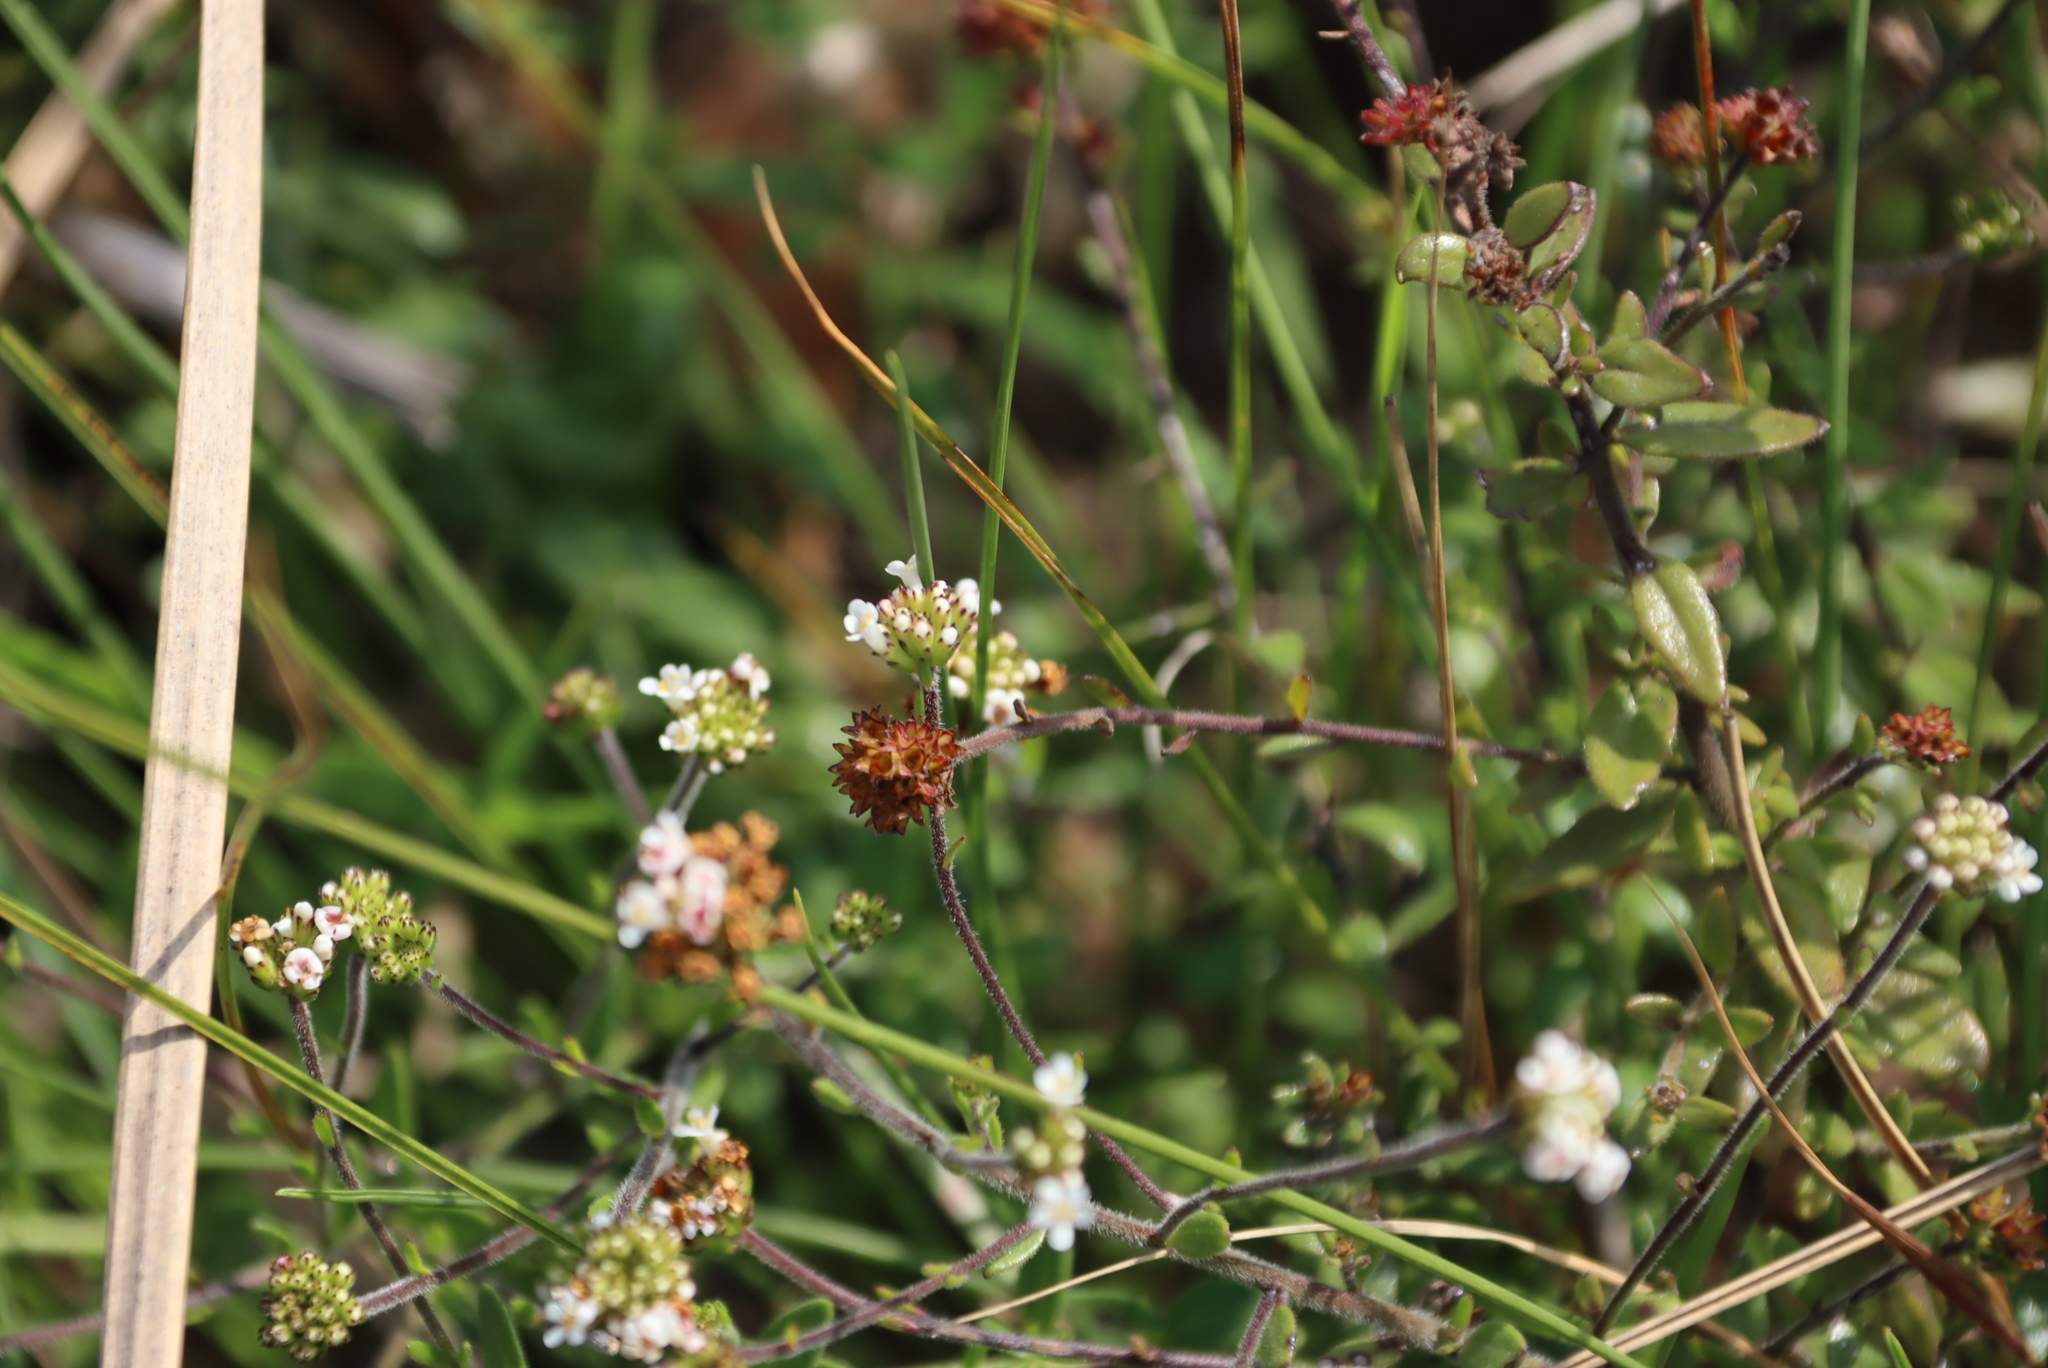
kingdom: Plantae
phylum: Tracheophyta
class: Magnoliopsida
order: Lamiales
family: Scrophulariaceae
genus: Selago
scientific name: Selago swaziensis
